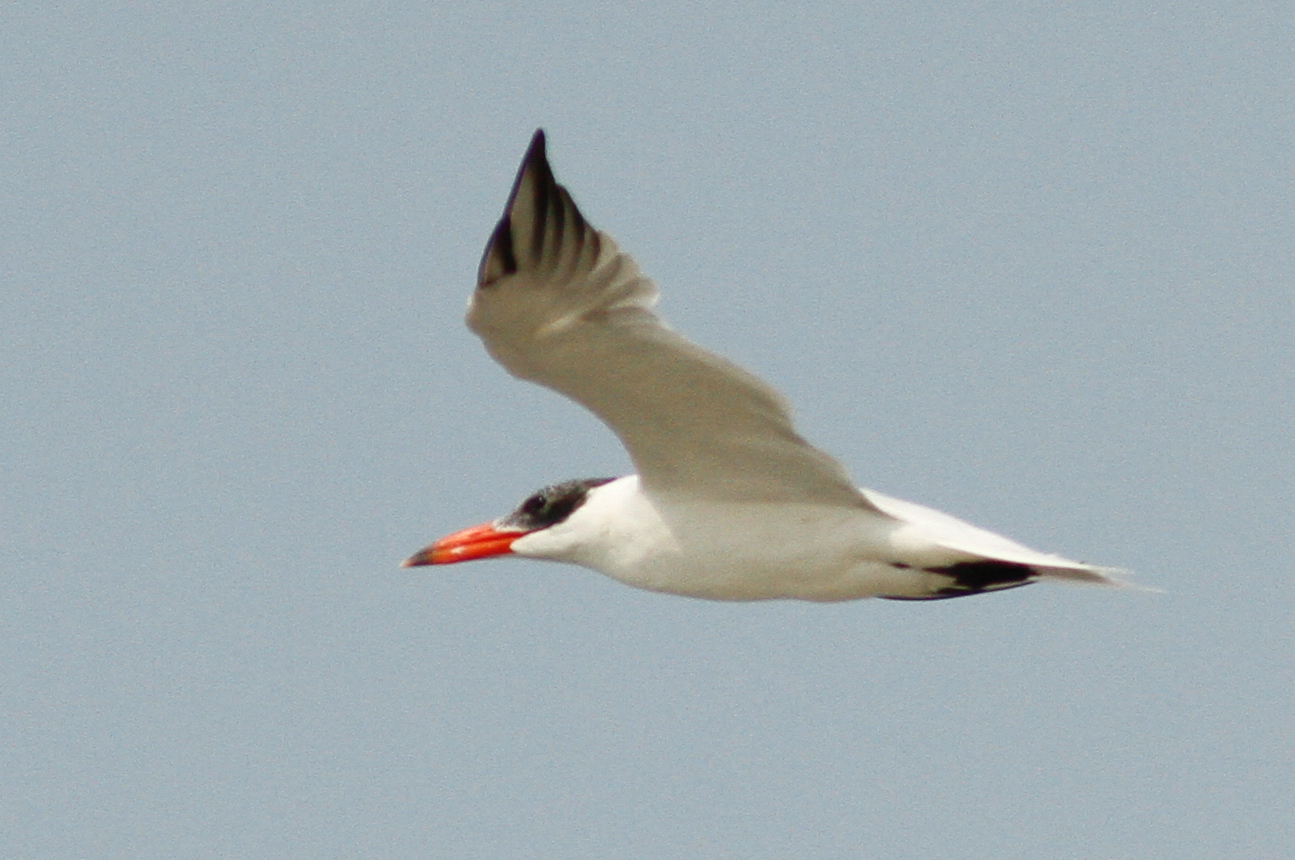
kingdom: Animalia
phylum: Chordata
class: Aves
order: Charadriiformes
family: Laridae
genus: Hydroprogne
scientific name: Hydroprogne caspia
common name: Caspian tern
